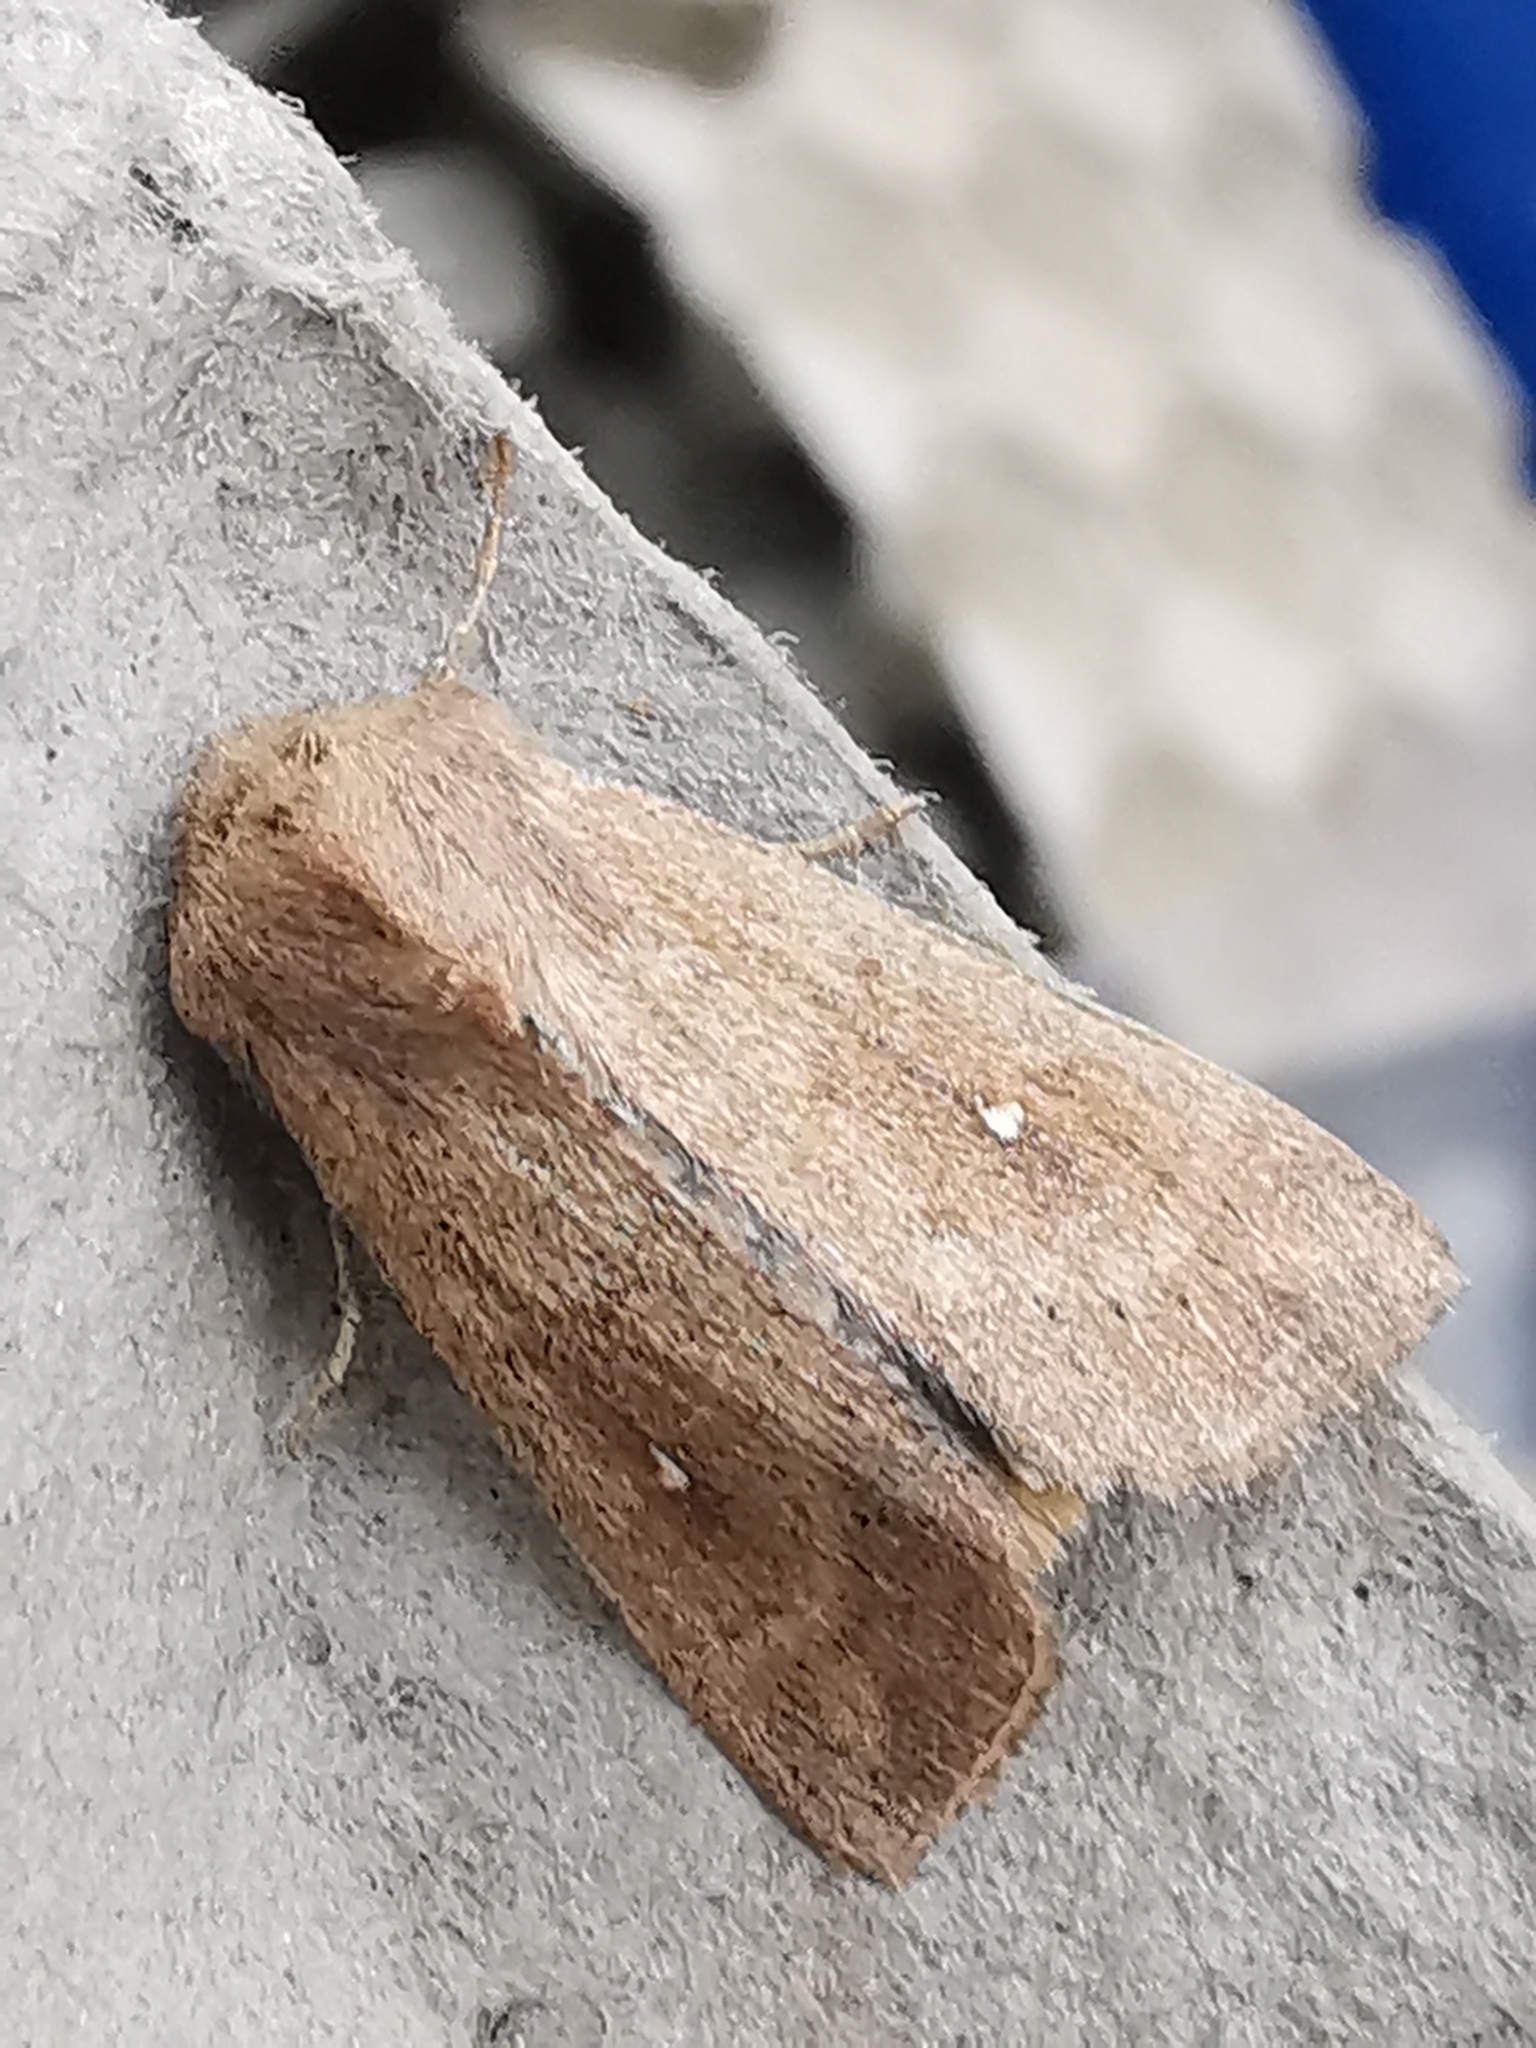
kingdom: Animalia
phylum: Arthropoda
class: Insecta
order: Lepidoptera
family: Noctuidae
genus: Mythimna
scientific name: Mythimna albipuncta
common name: White-point
